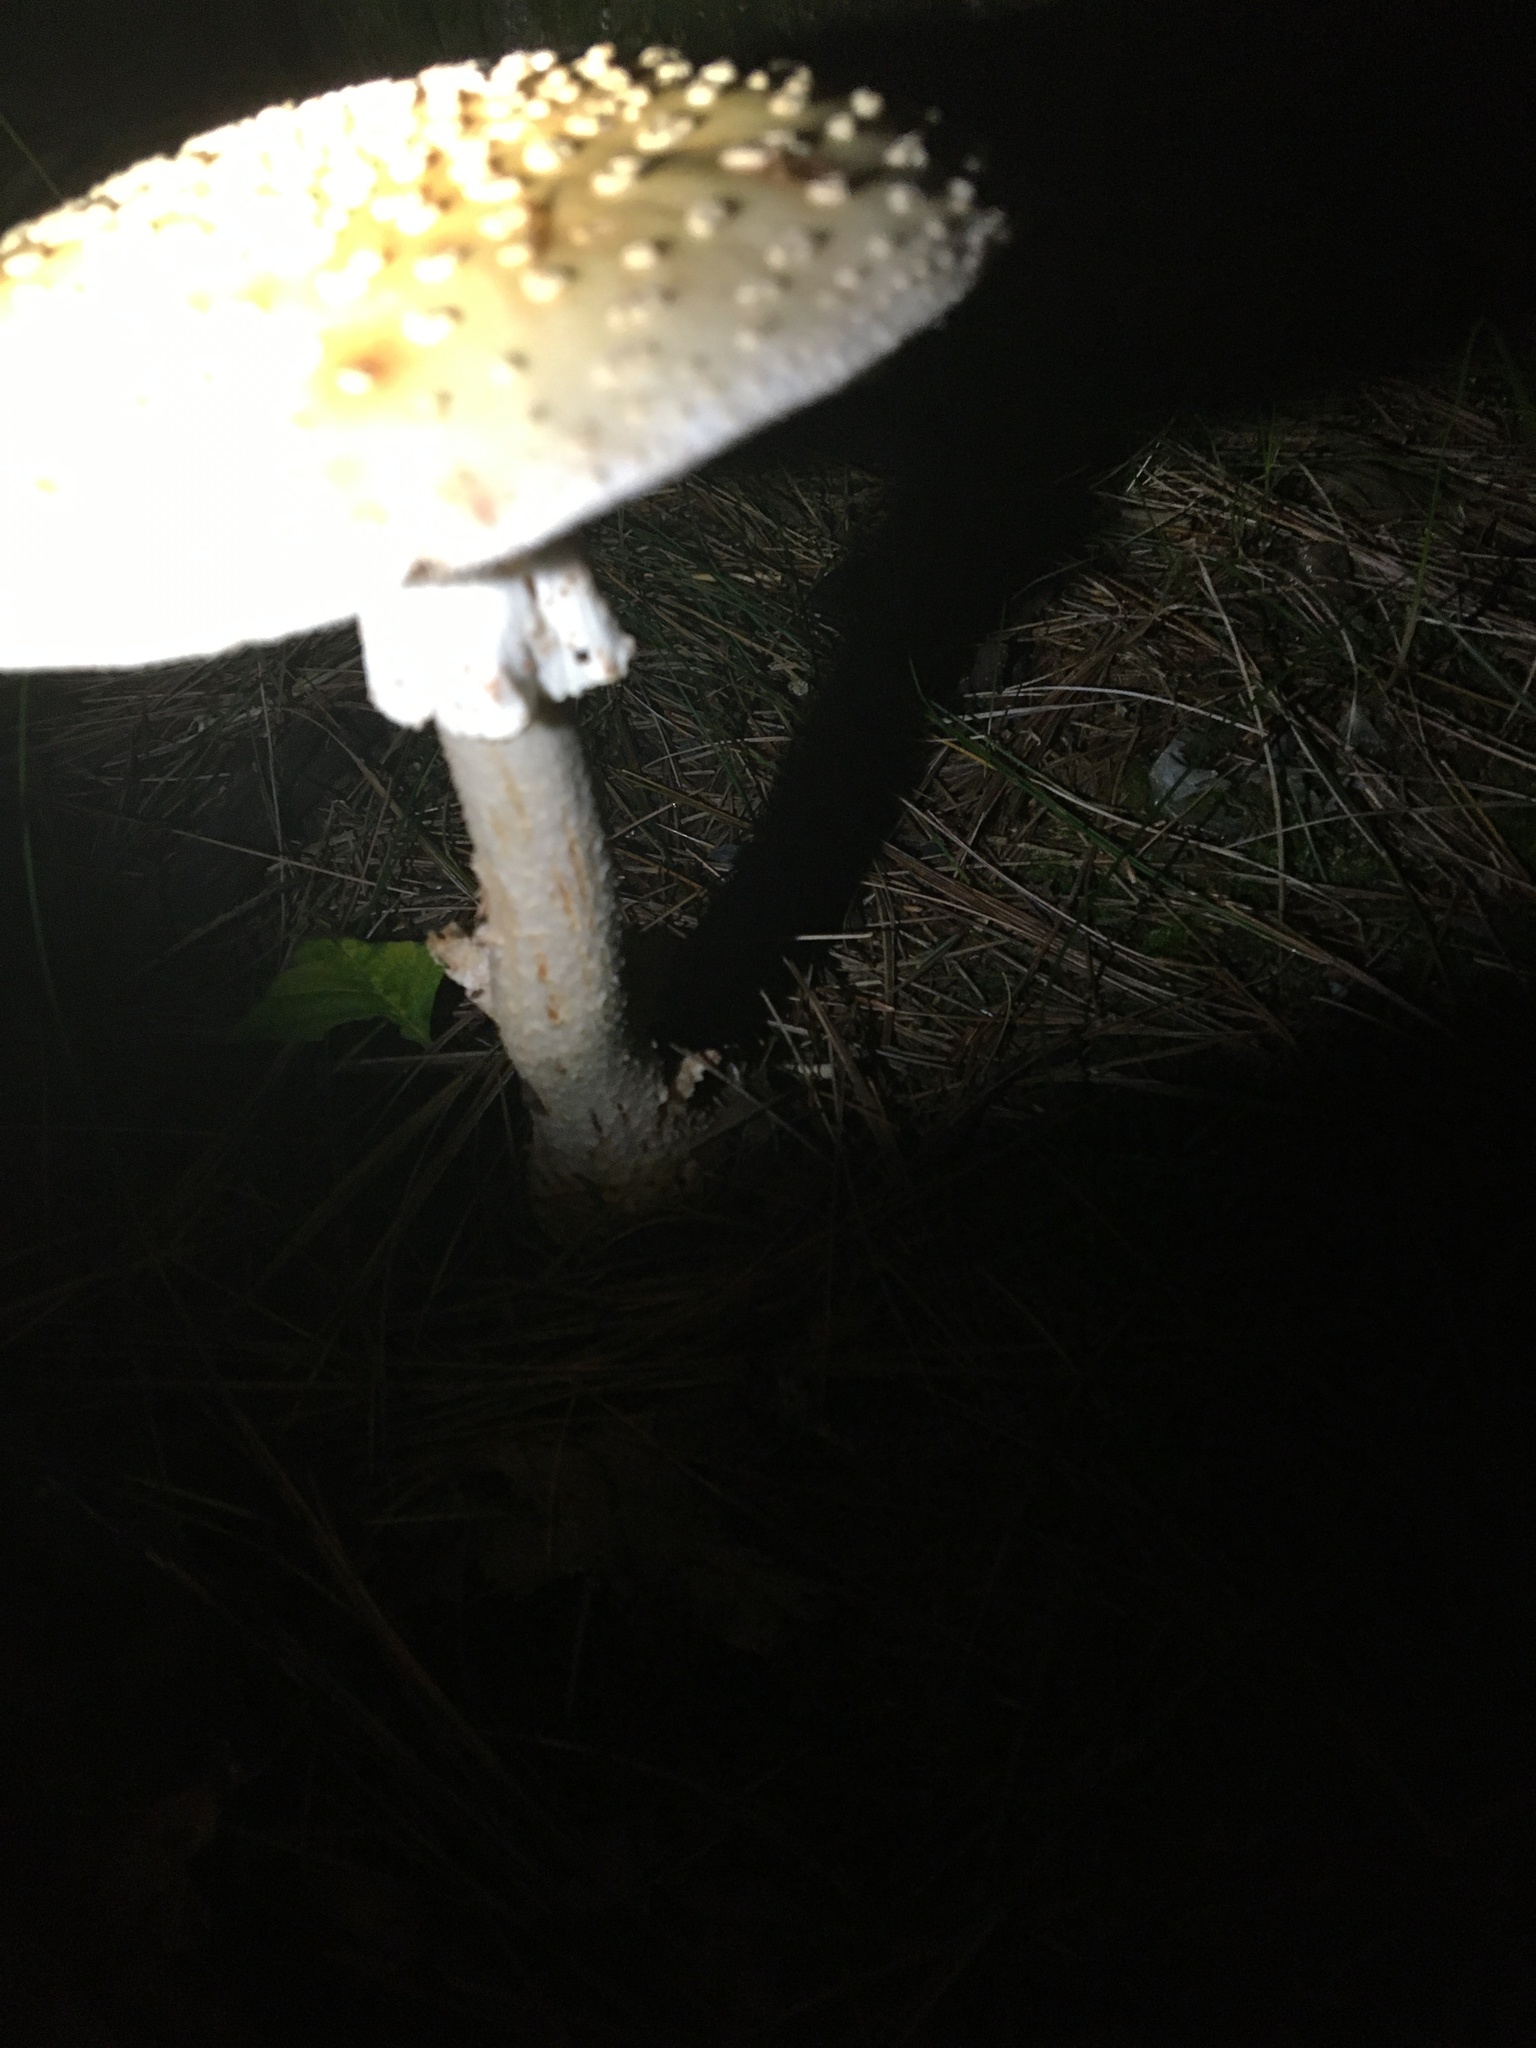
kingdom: Fungi
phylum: Basidiomycota
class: Agaricomycetes
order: Agaricales
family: Amanitaceae
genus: Amanita
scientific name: Amanita rubescens
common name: Blusher
